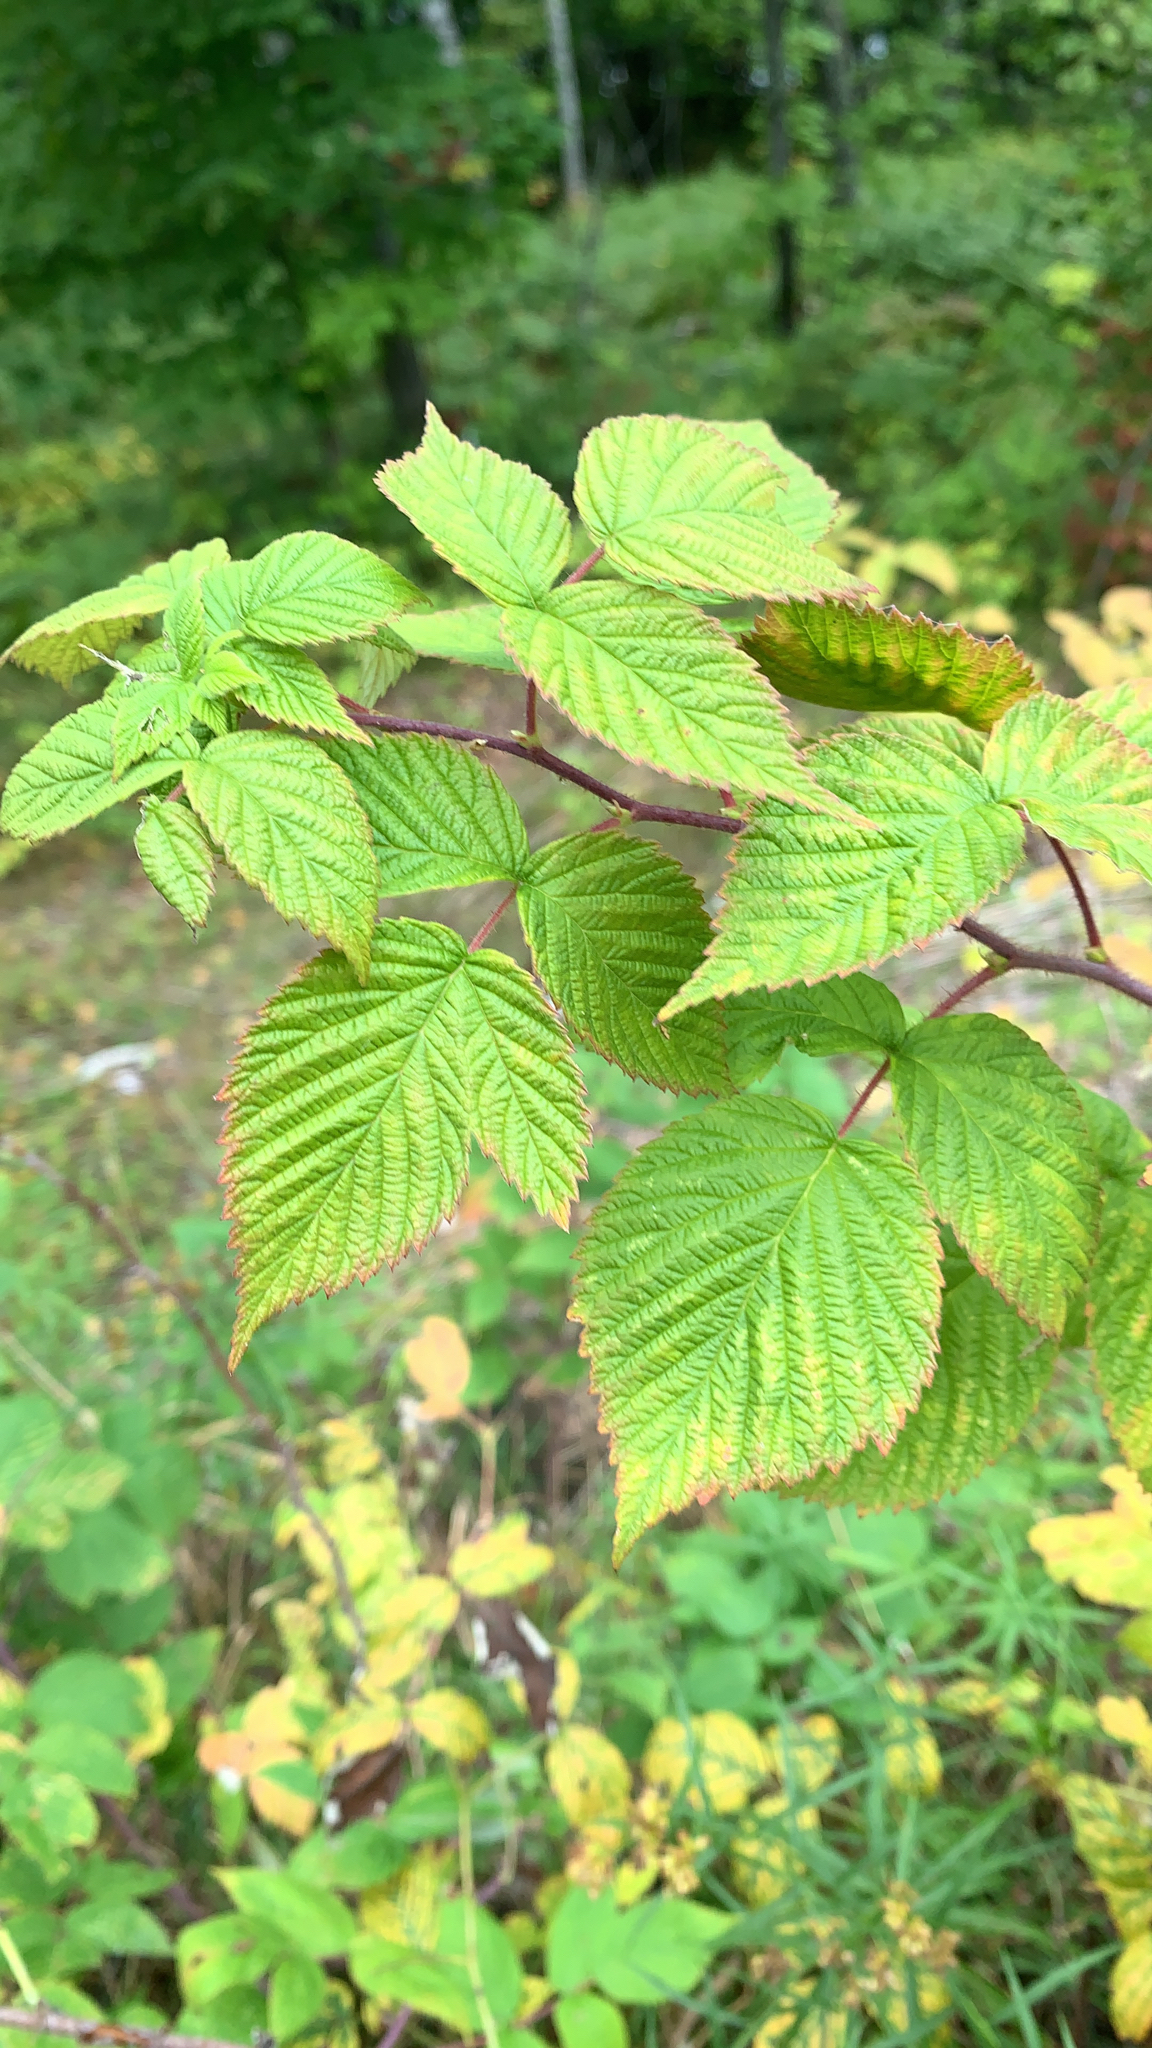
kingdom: Plantae
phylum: Tracheophyta
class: Magnoliopsida
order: Rosales
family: Rosaceae
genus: Rubus
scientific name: Rubus idaeus
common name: Raspberry
